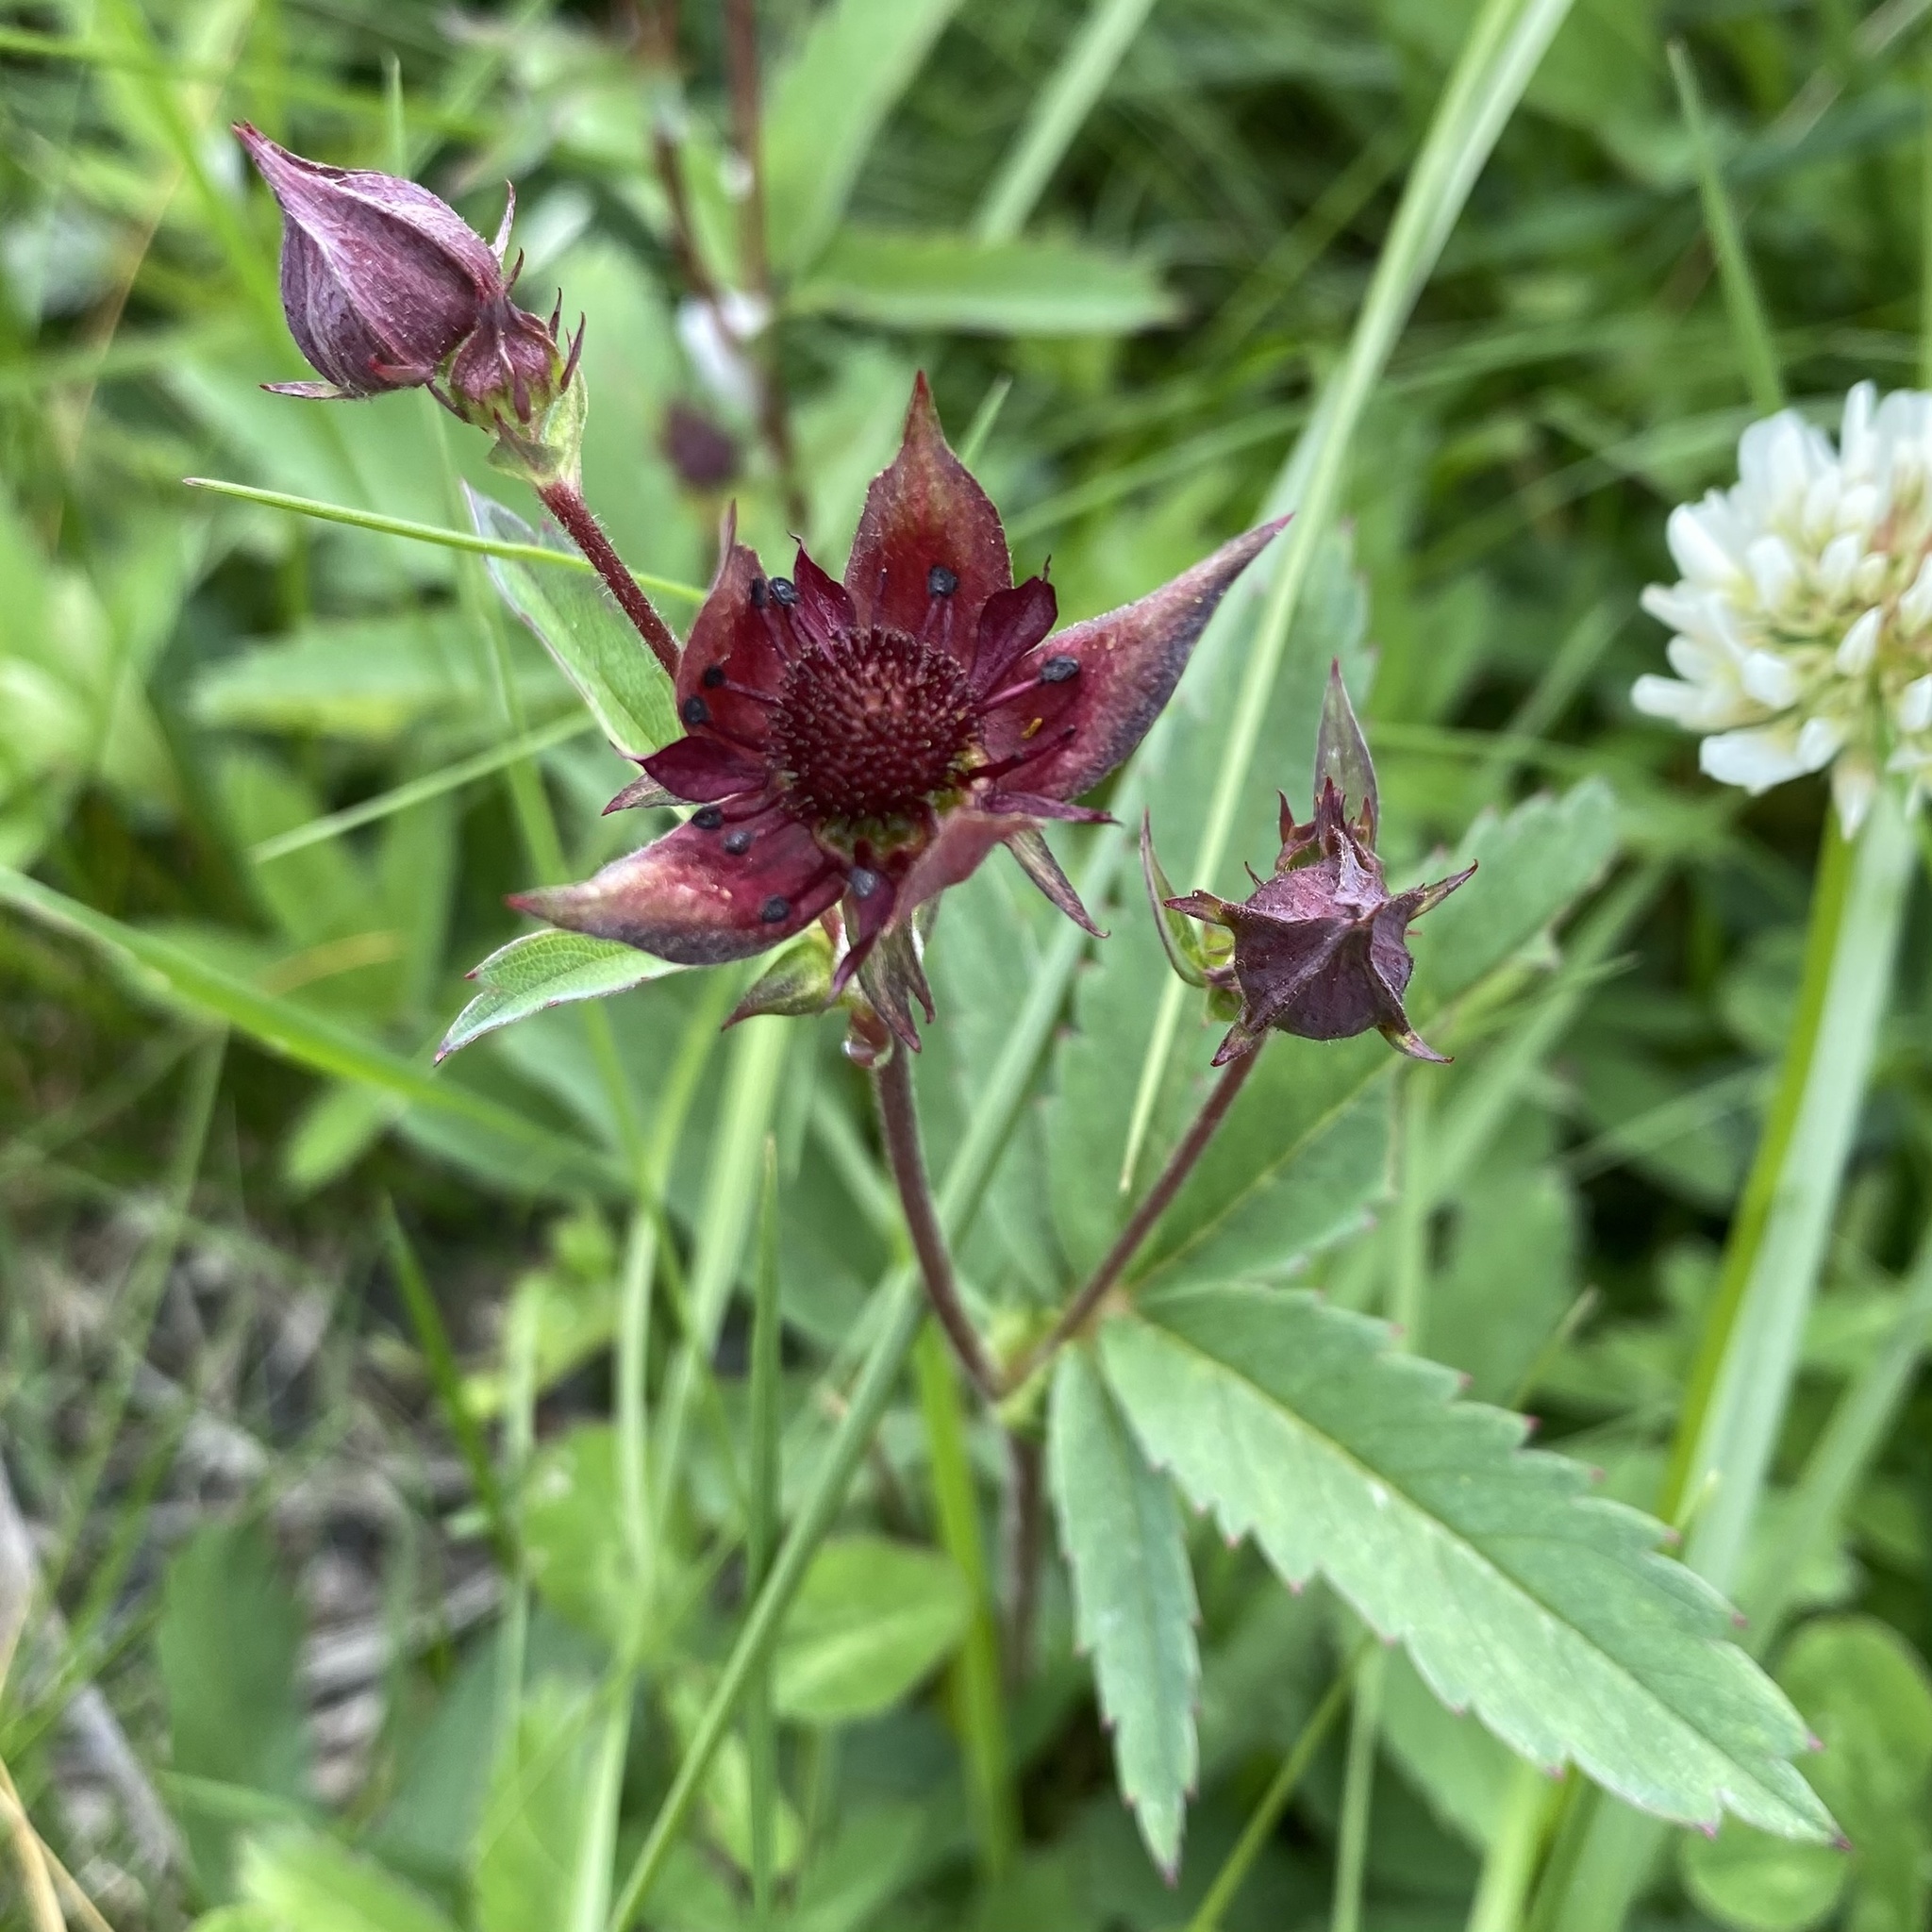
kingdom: Plantae
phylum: Tracheophyta
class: Magnoliopsida
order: Rosales
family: Rosaceae
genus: Comarum
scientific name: Comarum palustre
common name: Marsh cinquefoil
